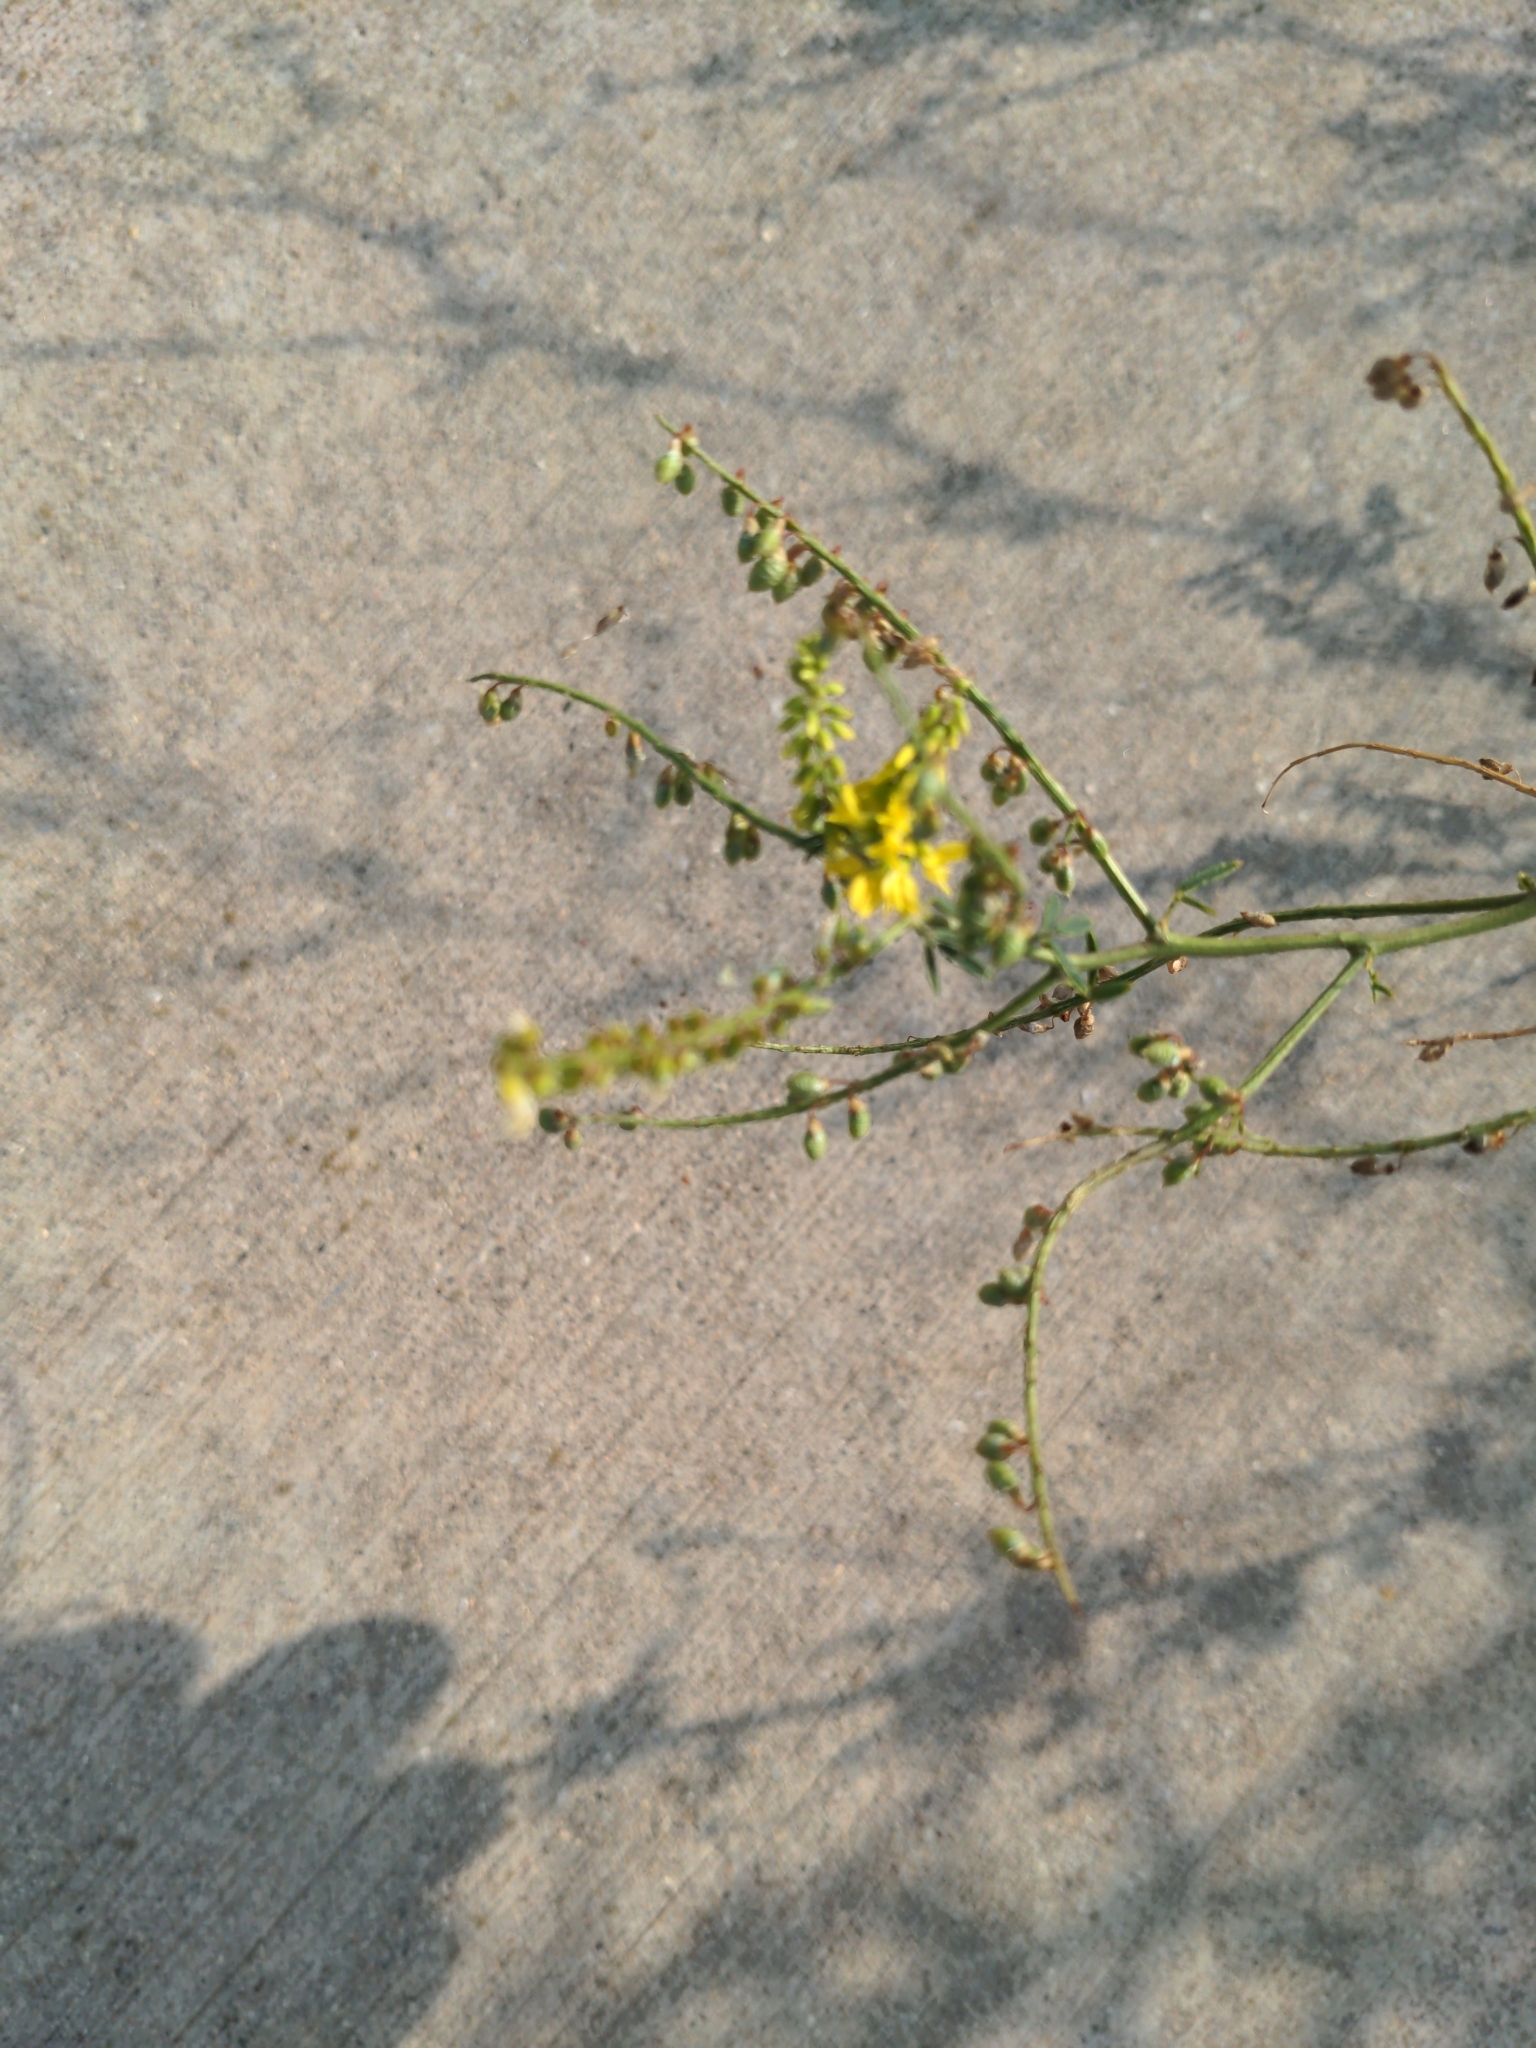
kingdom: Plantae
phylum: Tracheophyta
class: Magnoliopsida
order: Fabales
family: Fabaceae
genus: Melilotus
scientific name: Melilotus officinalis
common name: Sweetclover
